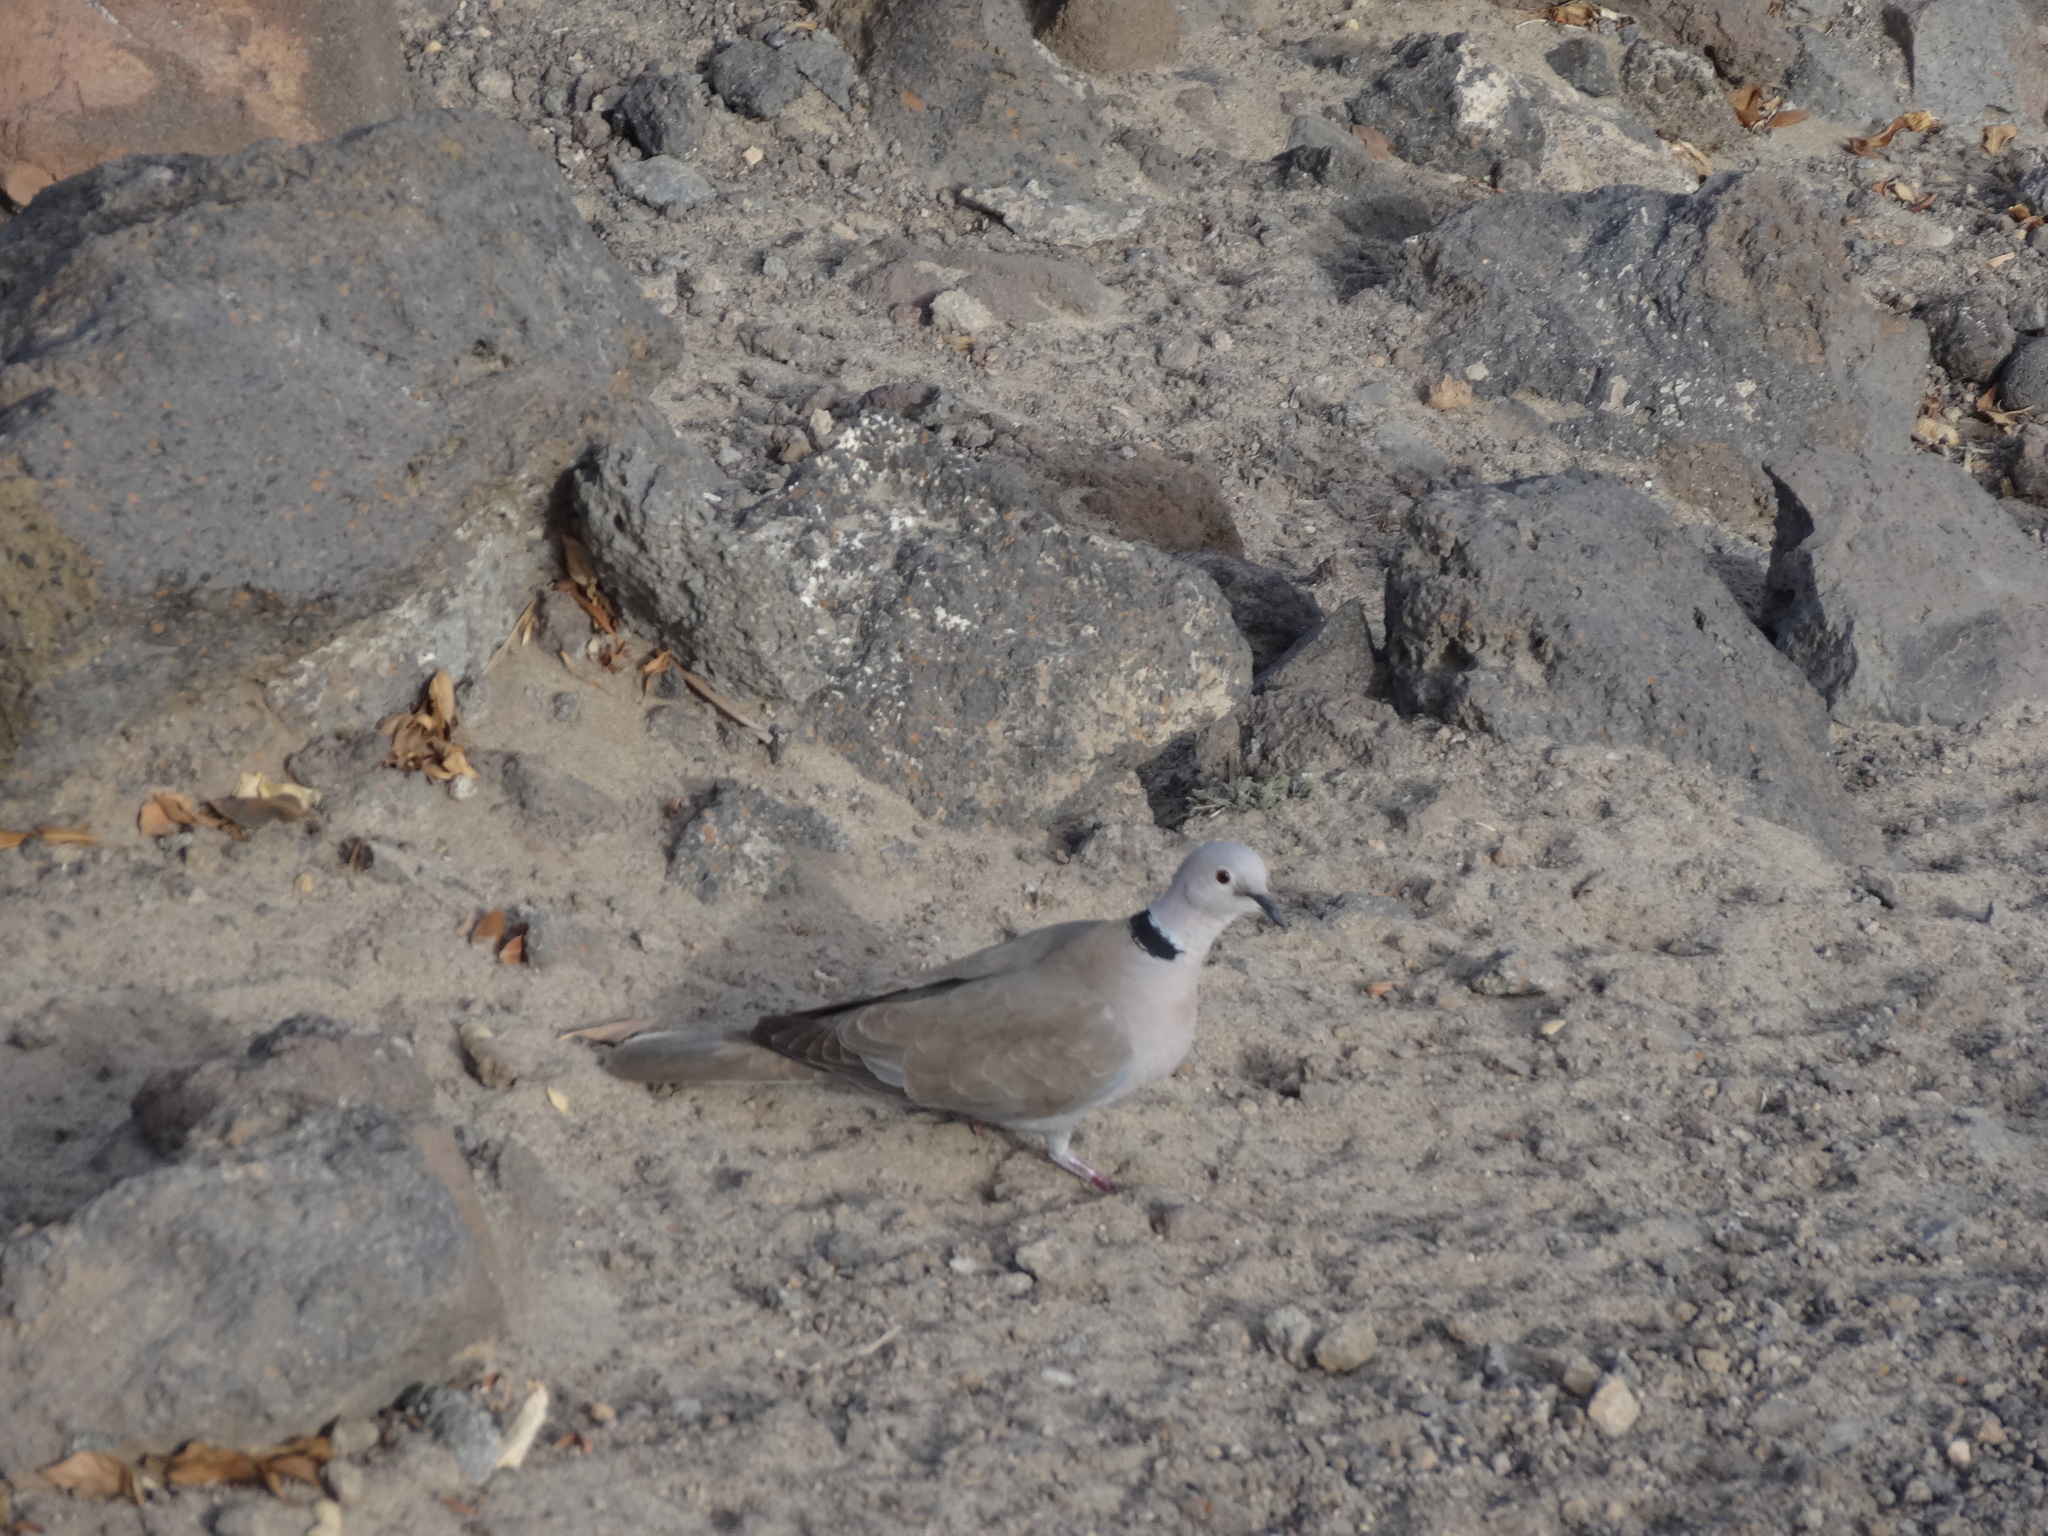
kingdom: Animalia
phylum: Chordata
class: Aves
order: Columbiformes
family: Columbidae
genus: Streptopelia
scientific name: Streptopelia decaocto
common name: Eurasian collared dove
